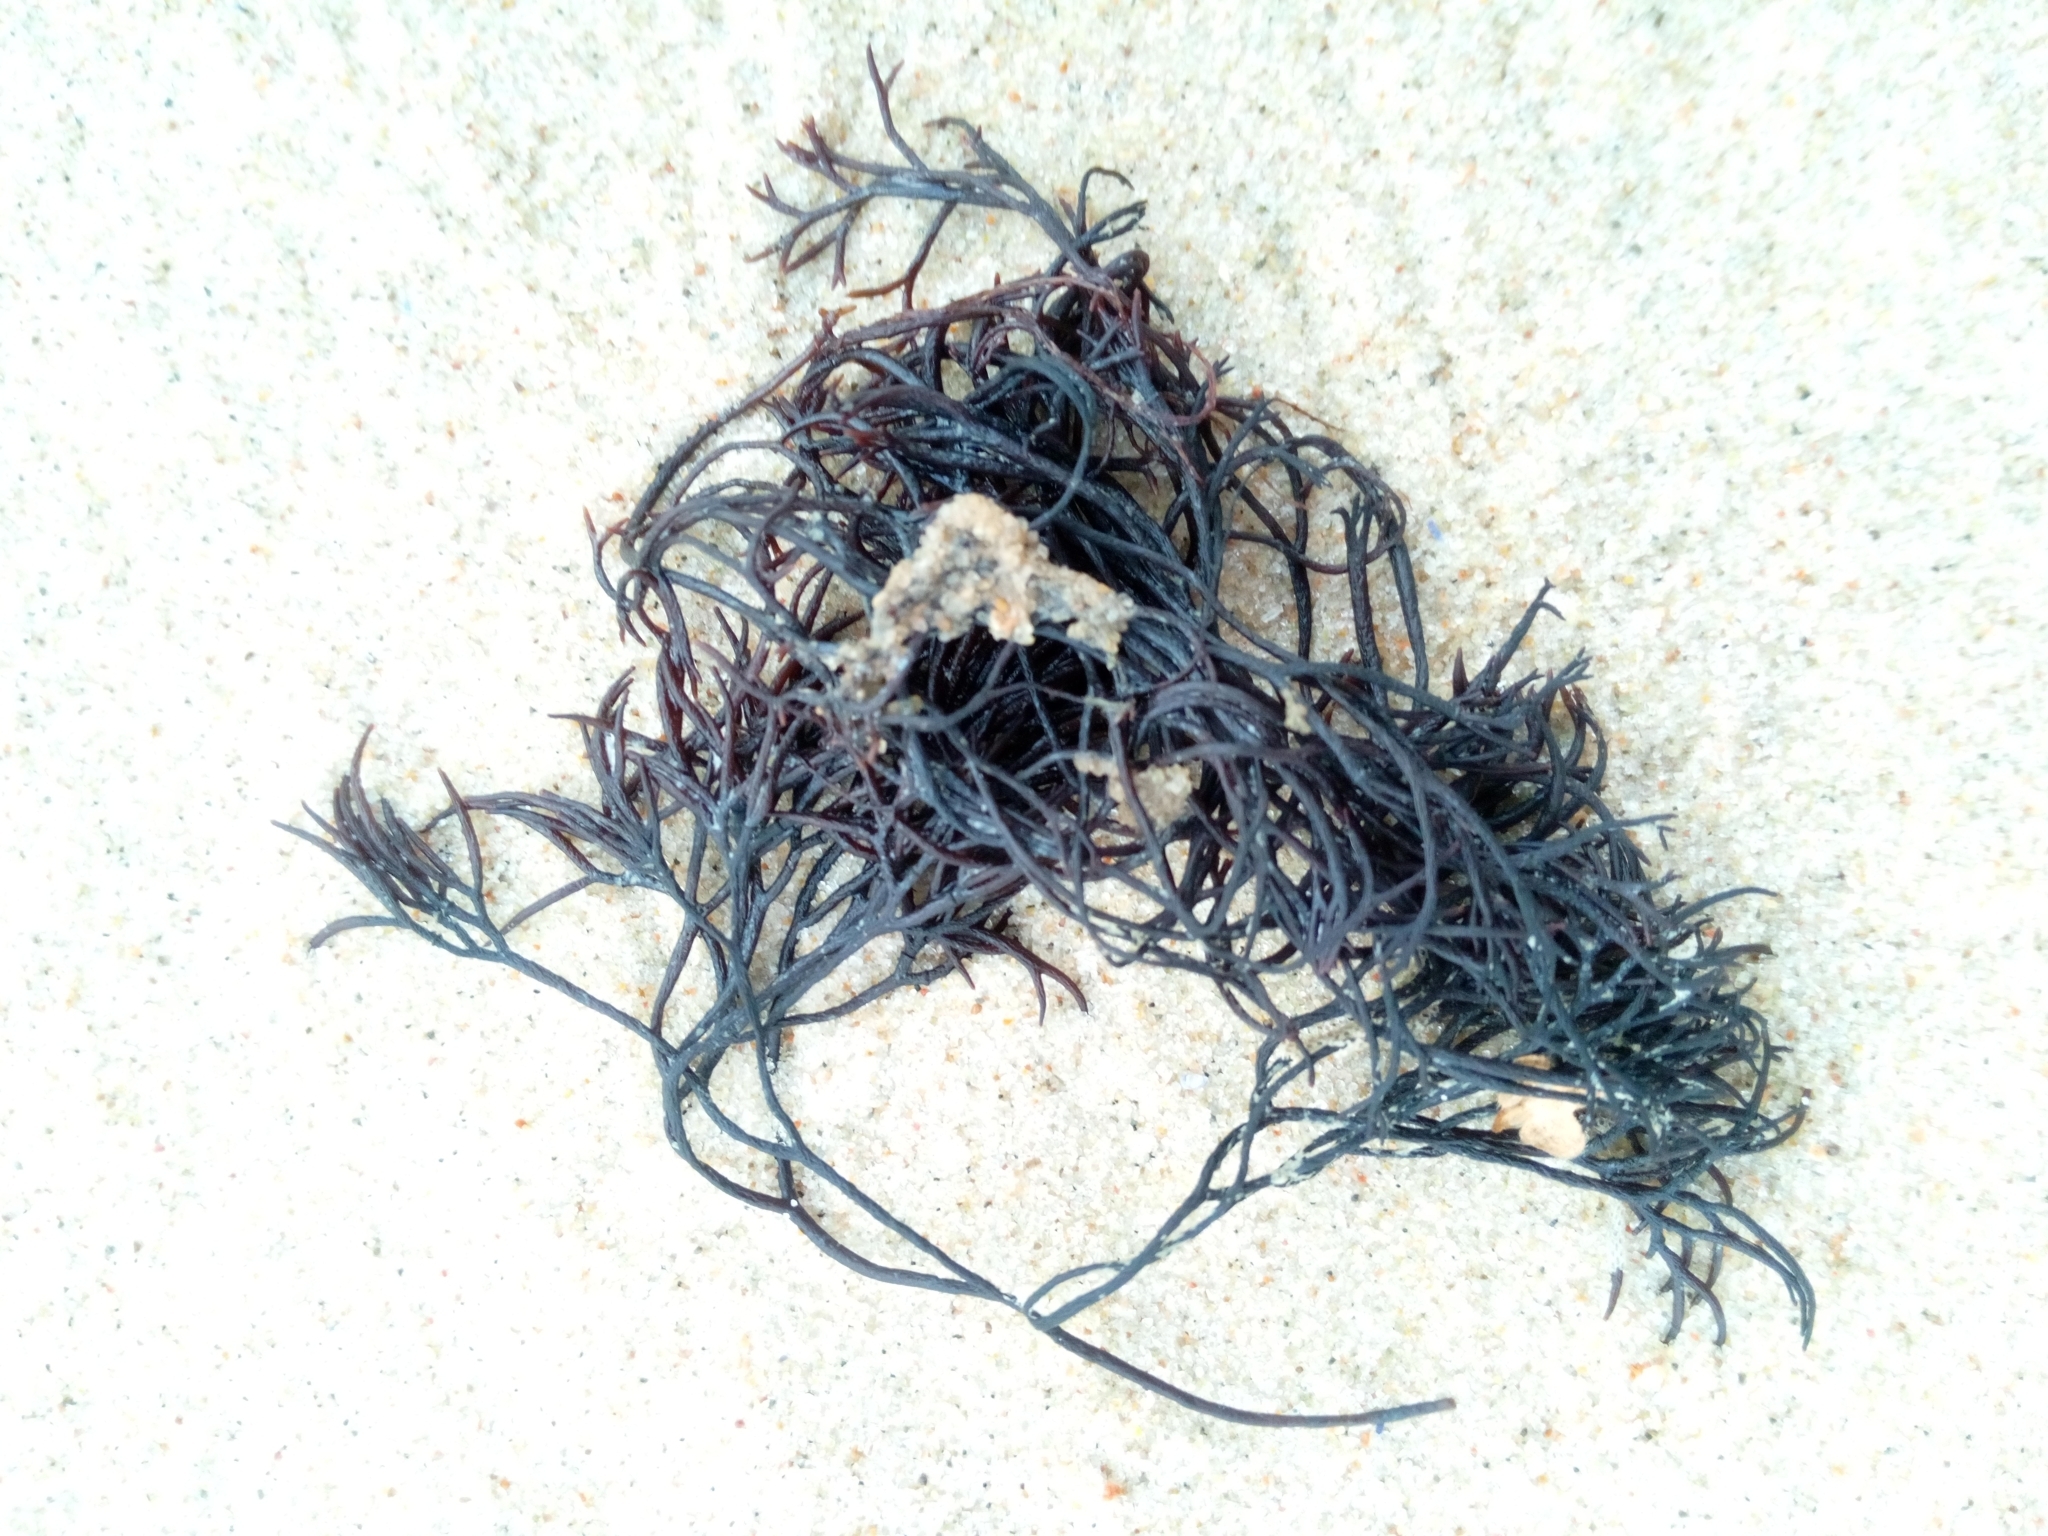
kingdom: Plantae
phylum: Rhodophyta
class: Florideophyceae
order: Gigartinales
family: Furcellariaceae
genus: Furcellaria
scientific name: Furcellaria lumbricalis
